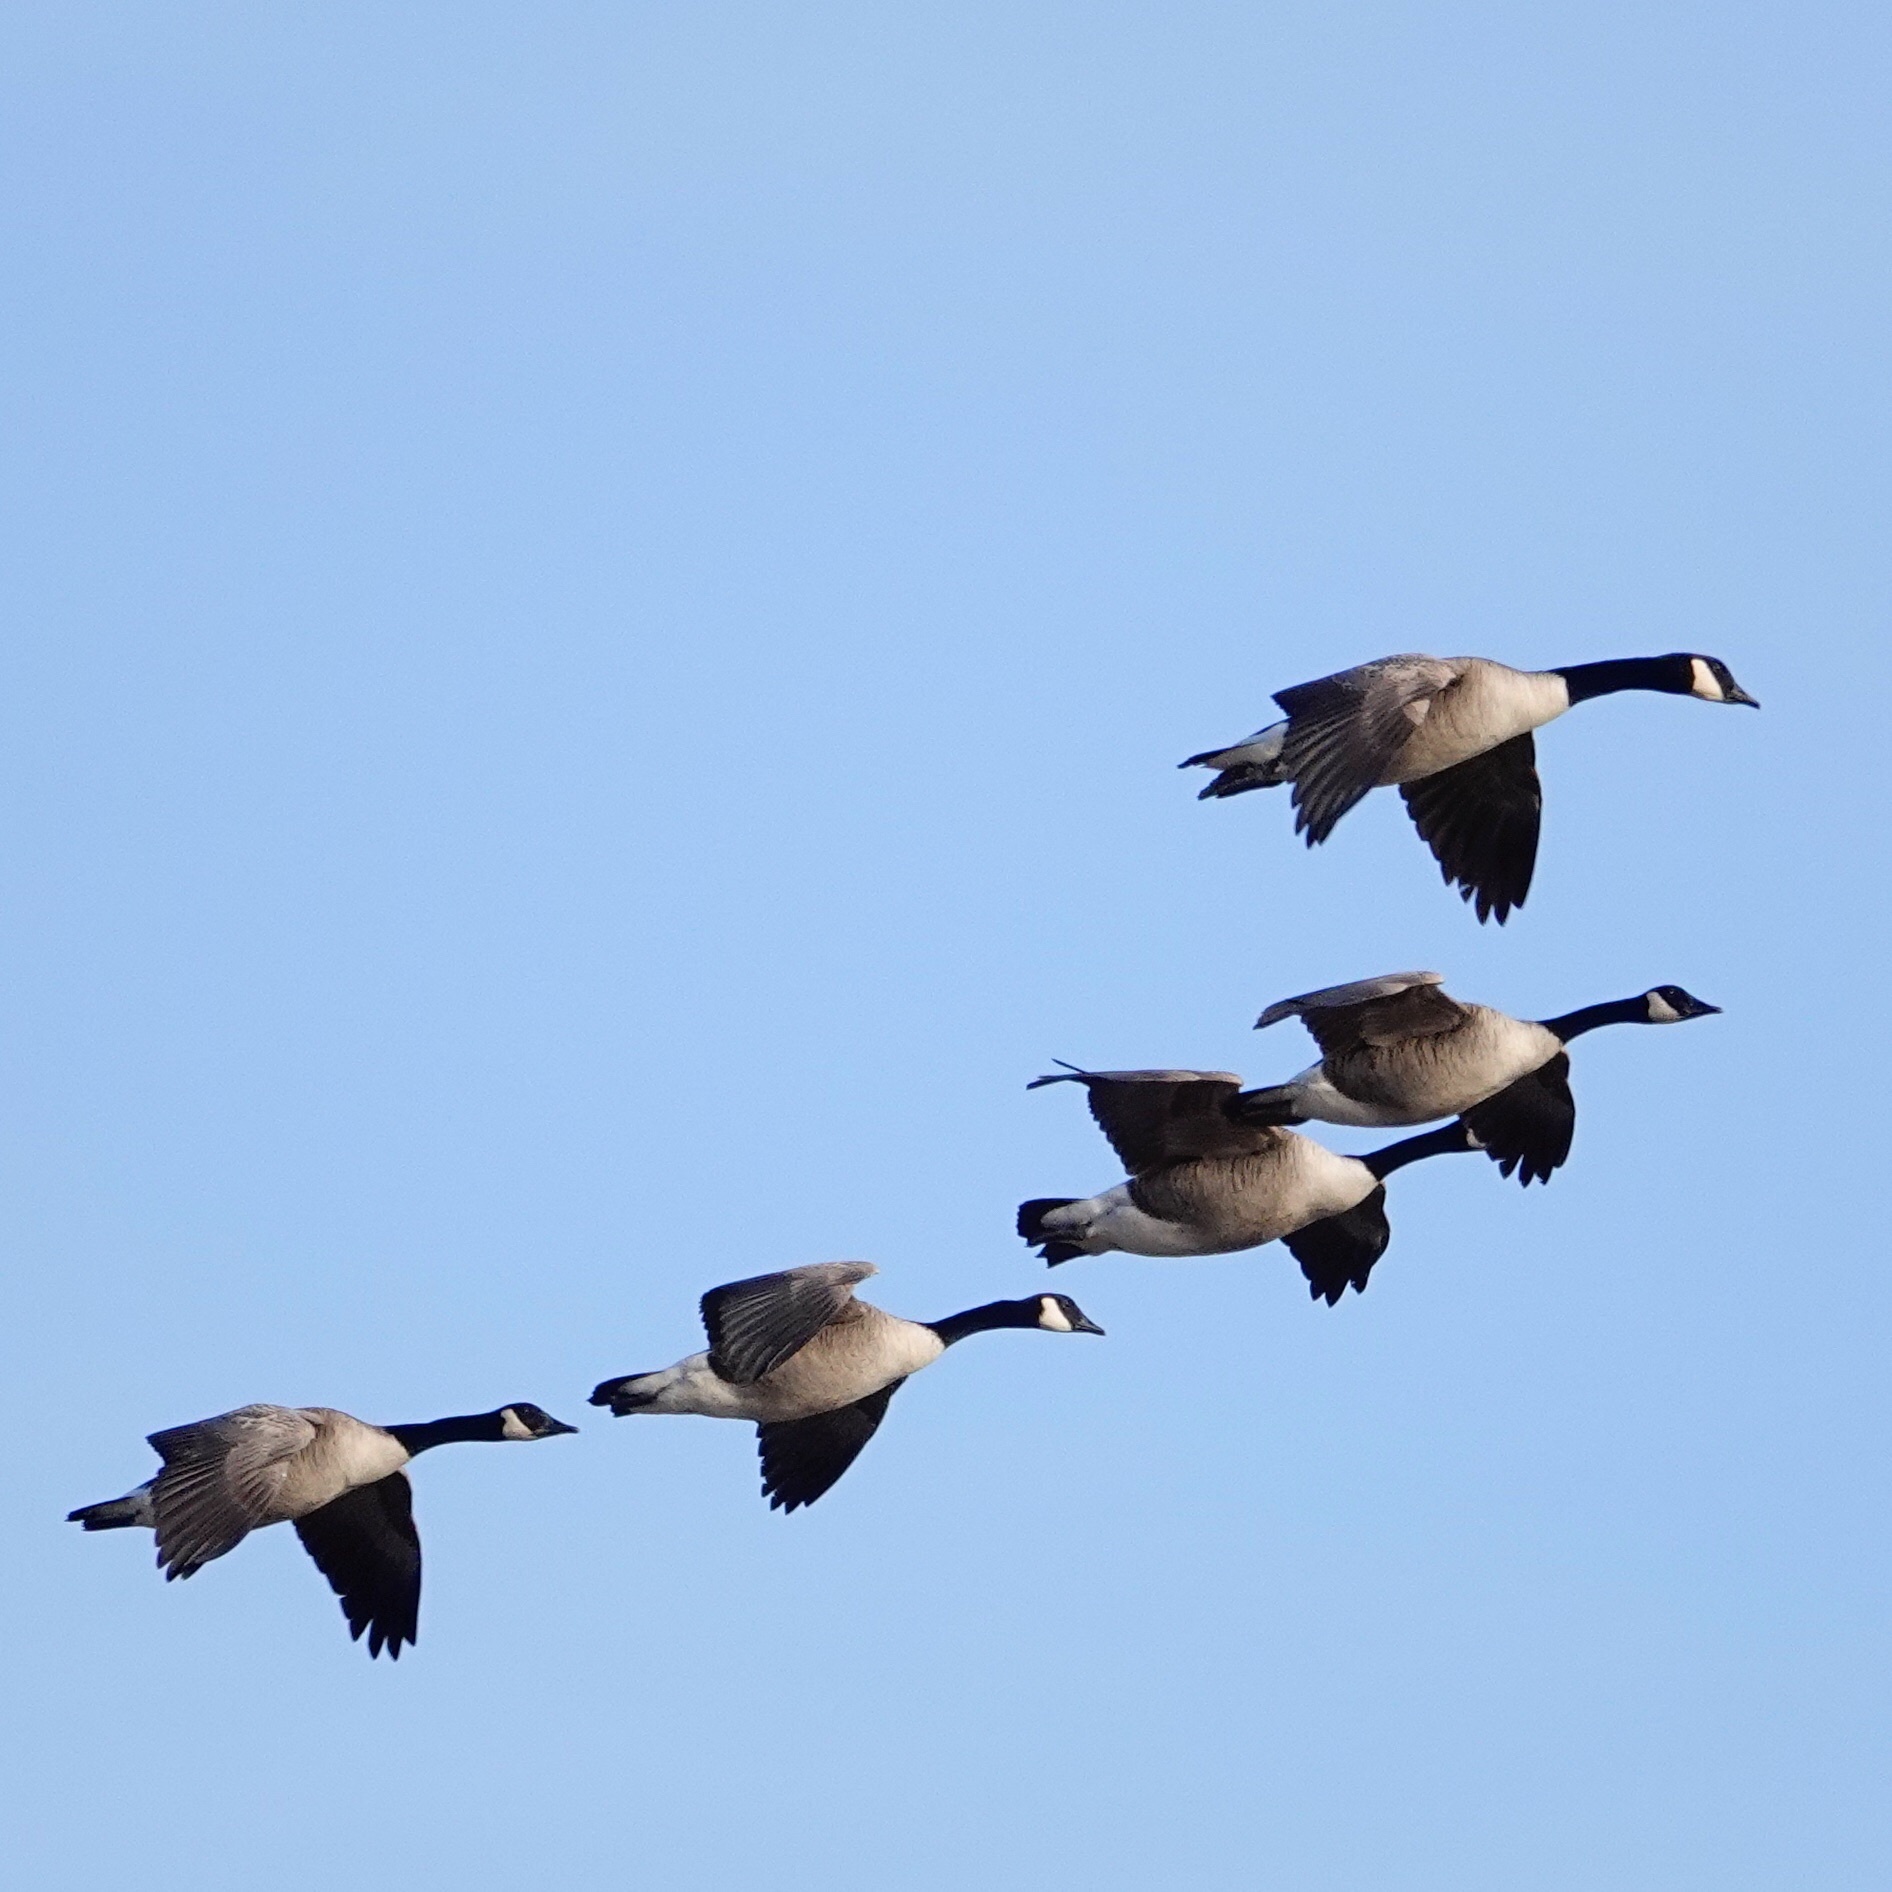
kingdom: Animalia
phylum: Chordata
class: Aves
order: Anseriformes
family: Anatidae
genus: Branta
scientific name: Branta canadensis
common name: Canada goose
